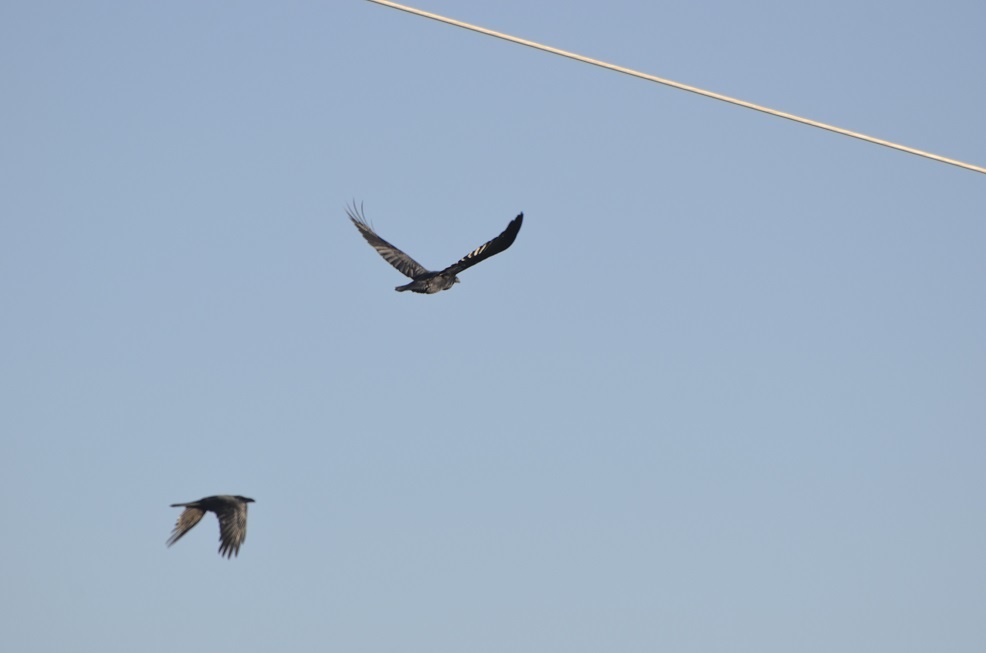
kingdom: Animalia
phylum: Chordata
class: Aves
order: Passeriformes
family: Corvidae
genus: Corvus
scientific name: Corvus corax
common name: Common raven
